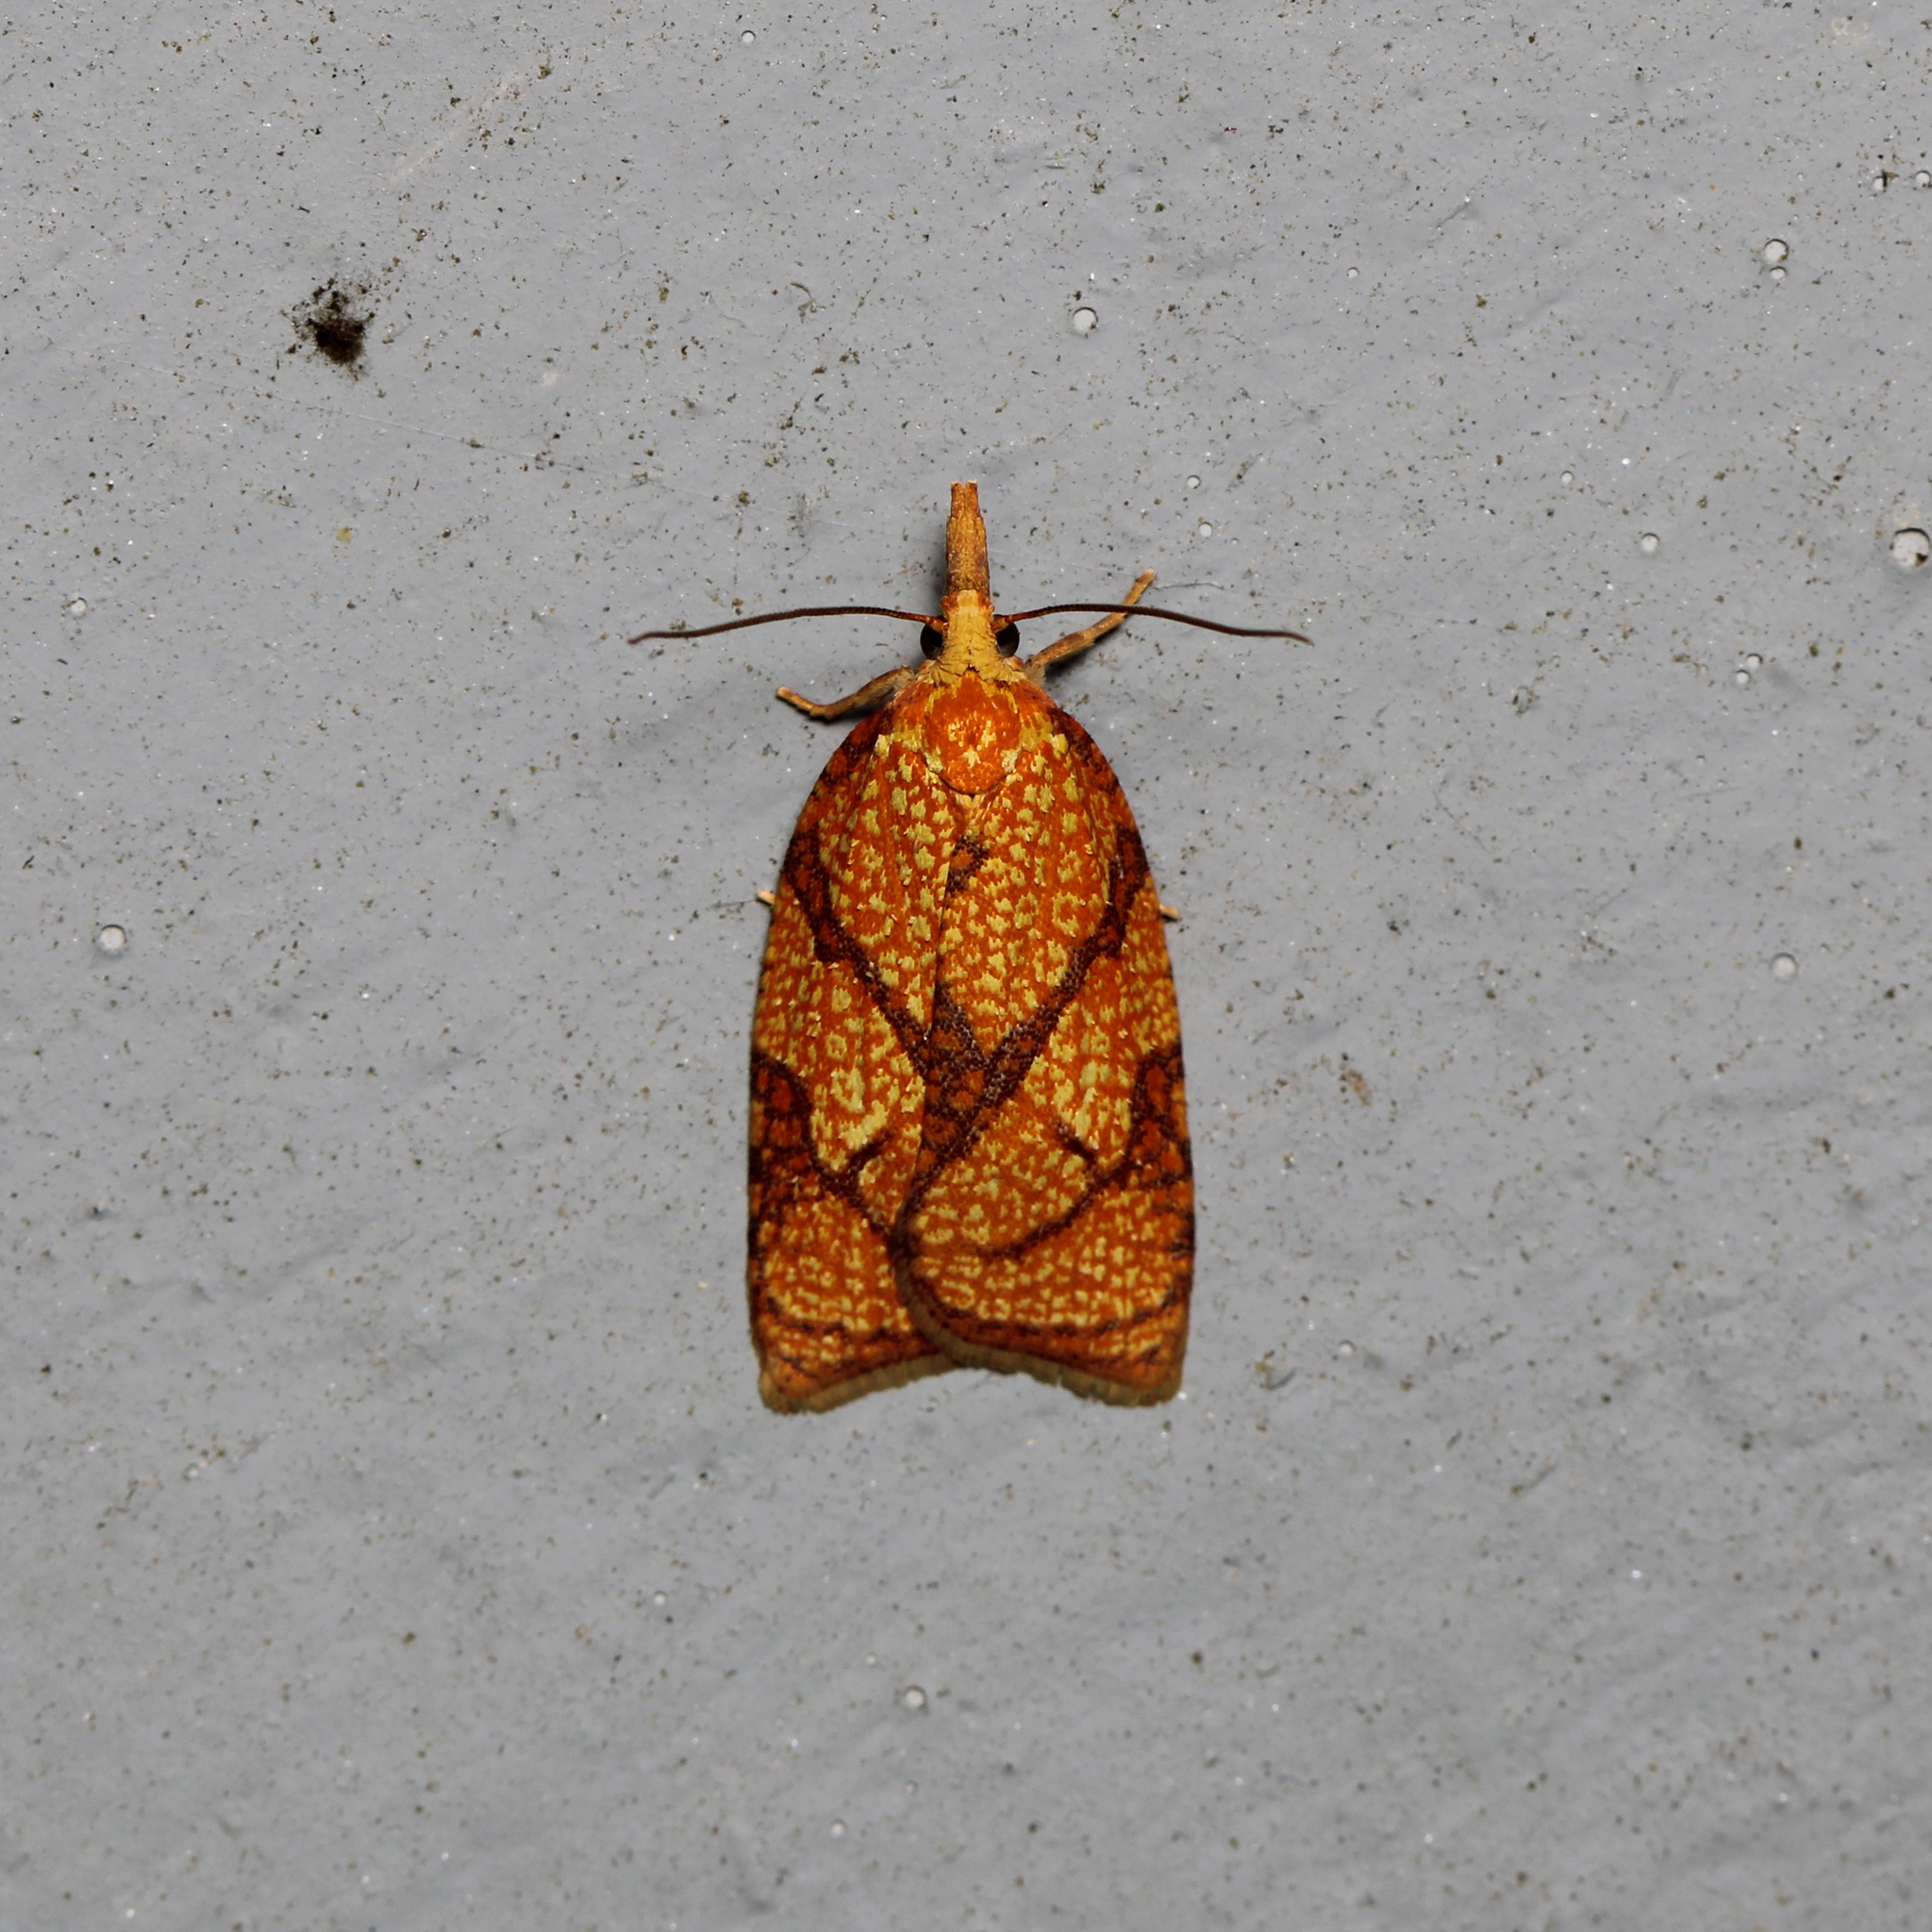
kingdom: Animalia
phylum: Arthropoda
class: Insecta
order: Lepidoptera
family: Tortricidae
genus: Cenopis
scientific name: Cenopis reticulatana
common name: Reticulated fruitworm moth
